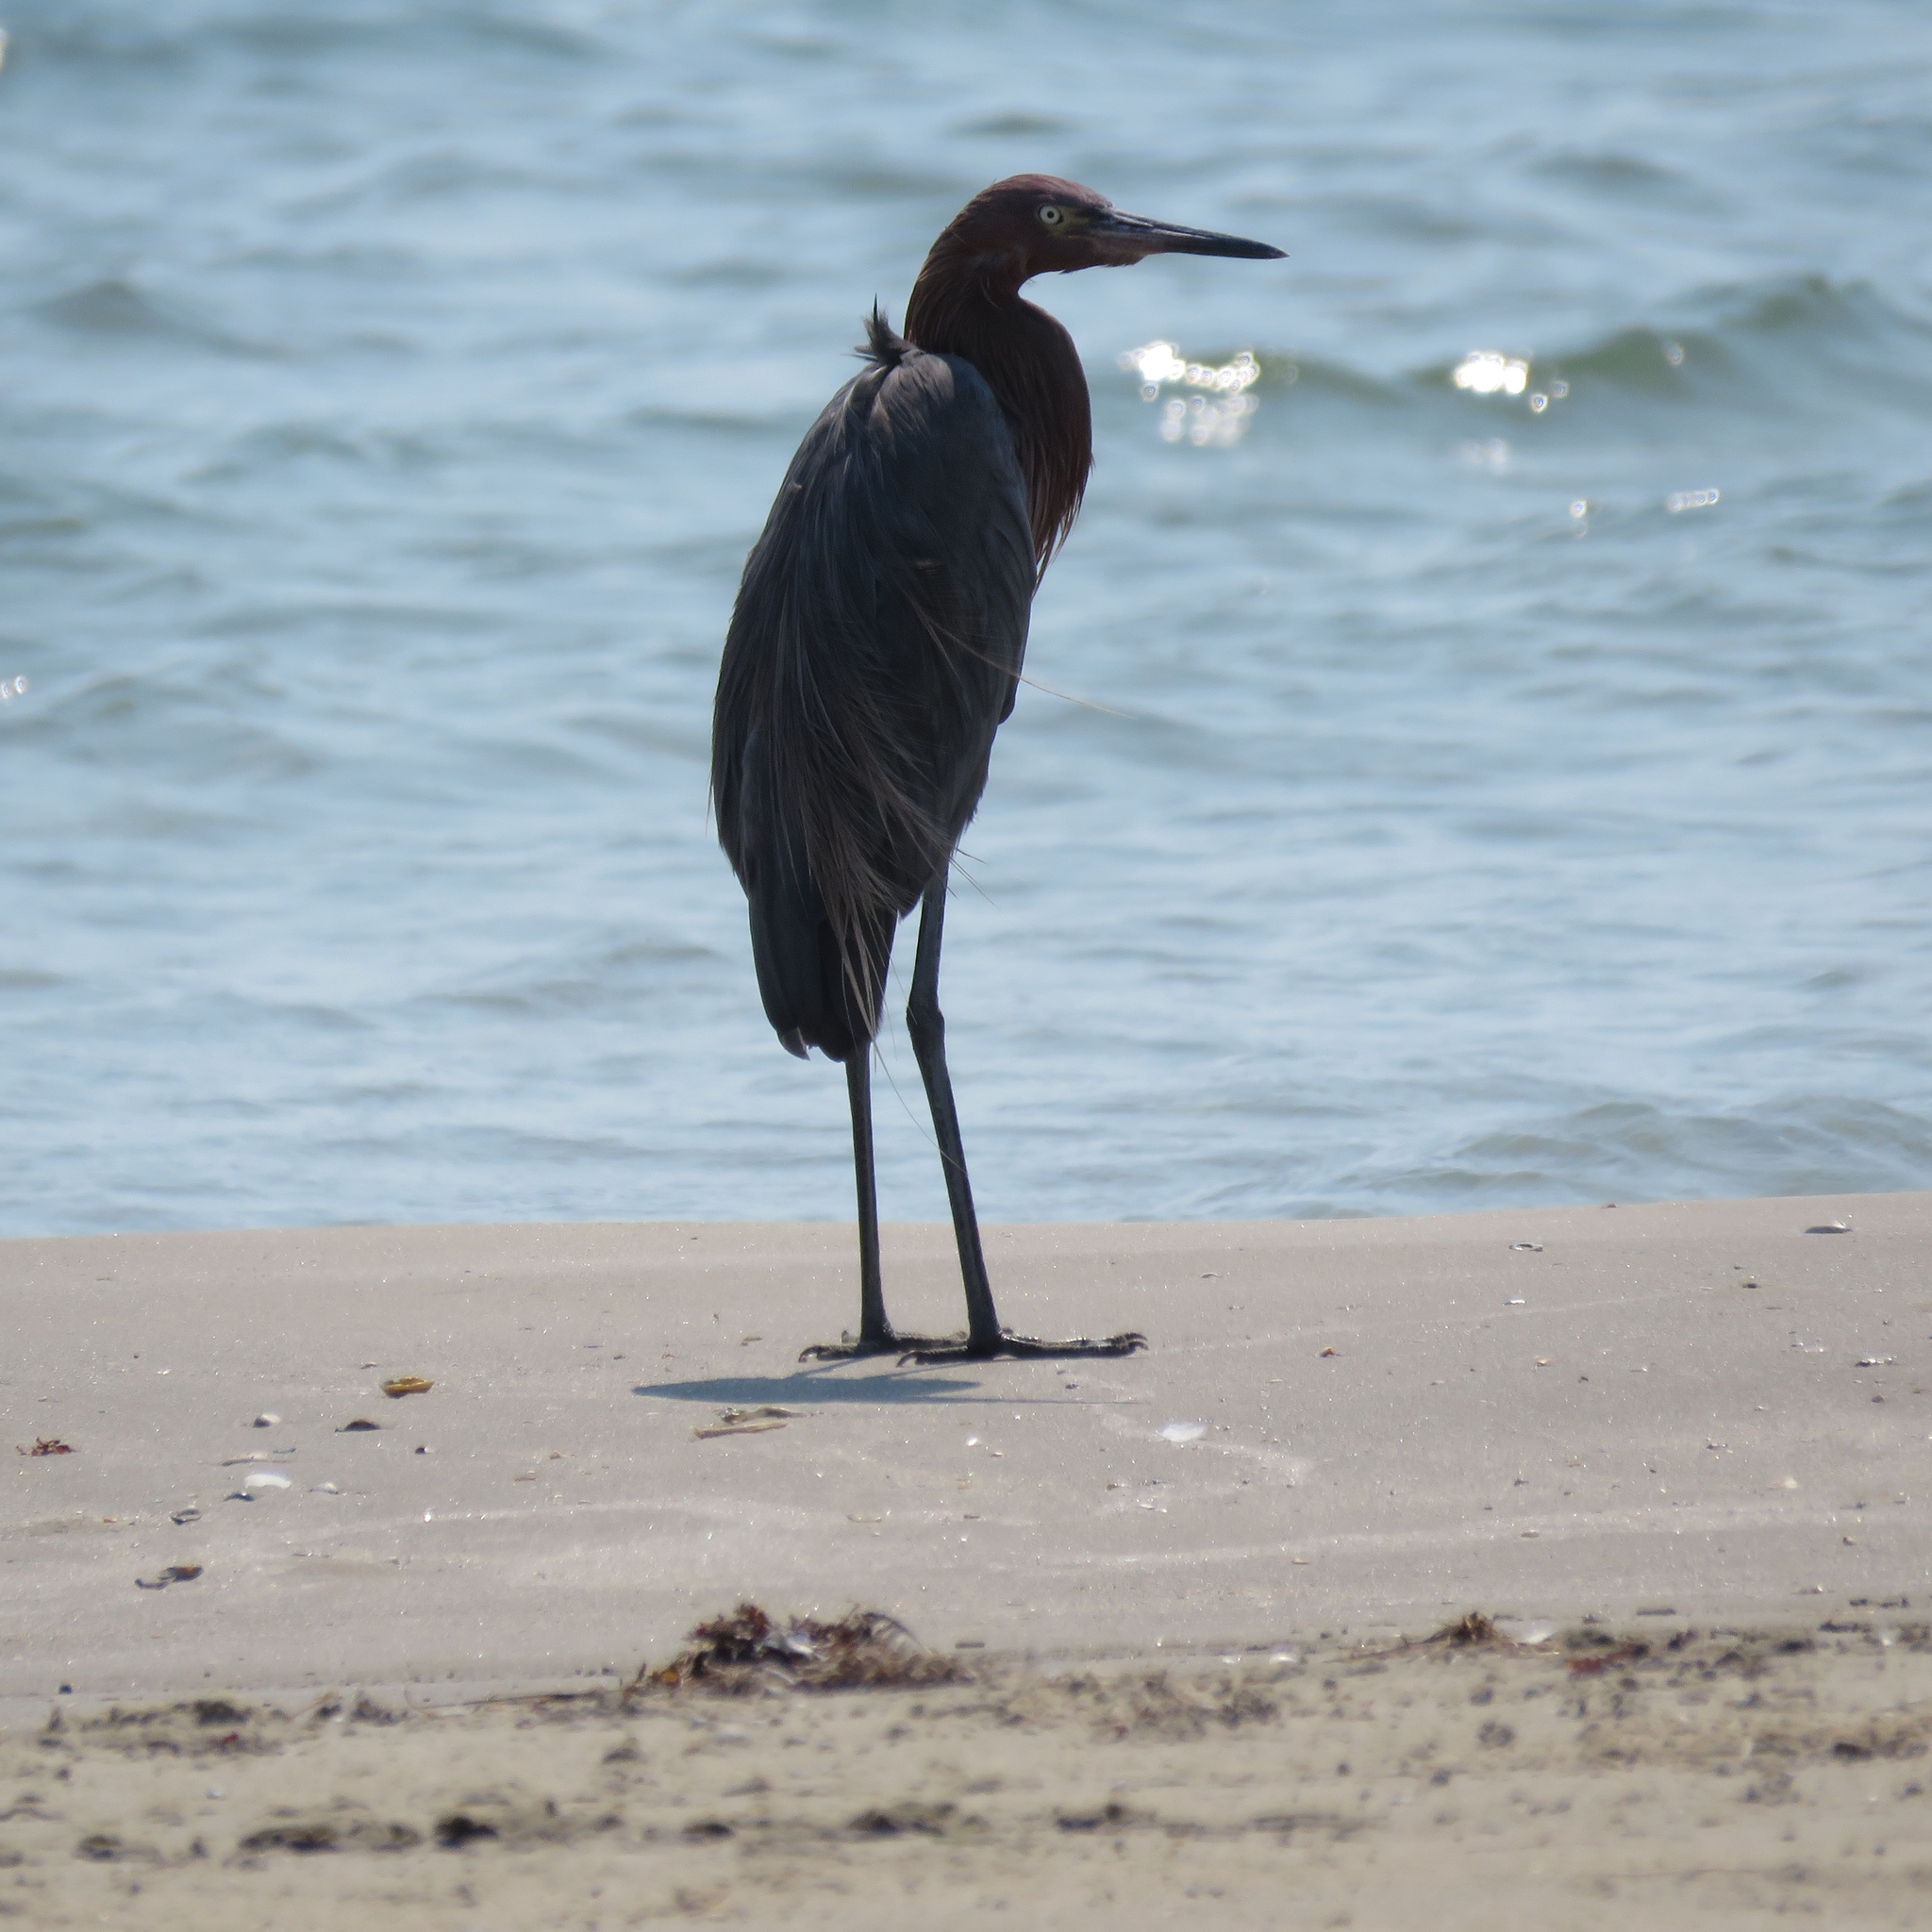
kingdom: Animalia
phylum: Chordata
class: Aves
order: Pelecaniformes
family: Ardeidae
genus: Egretta
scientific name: Egretta rufescens
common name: Reddish egret
